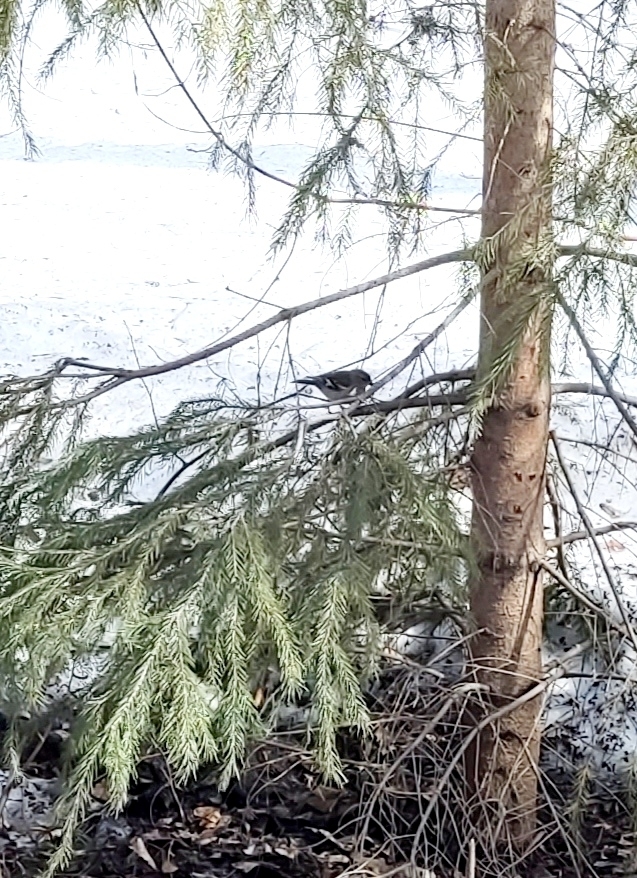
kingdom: Animalia
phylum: Chordata
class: Aves
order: Passeriformes
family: Fringillidae
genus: Fringilla
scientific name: Fringilla coelebs
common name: Common chaffinch
